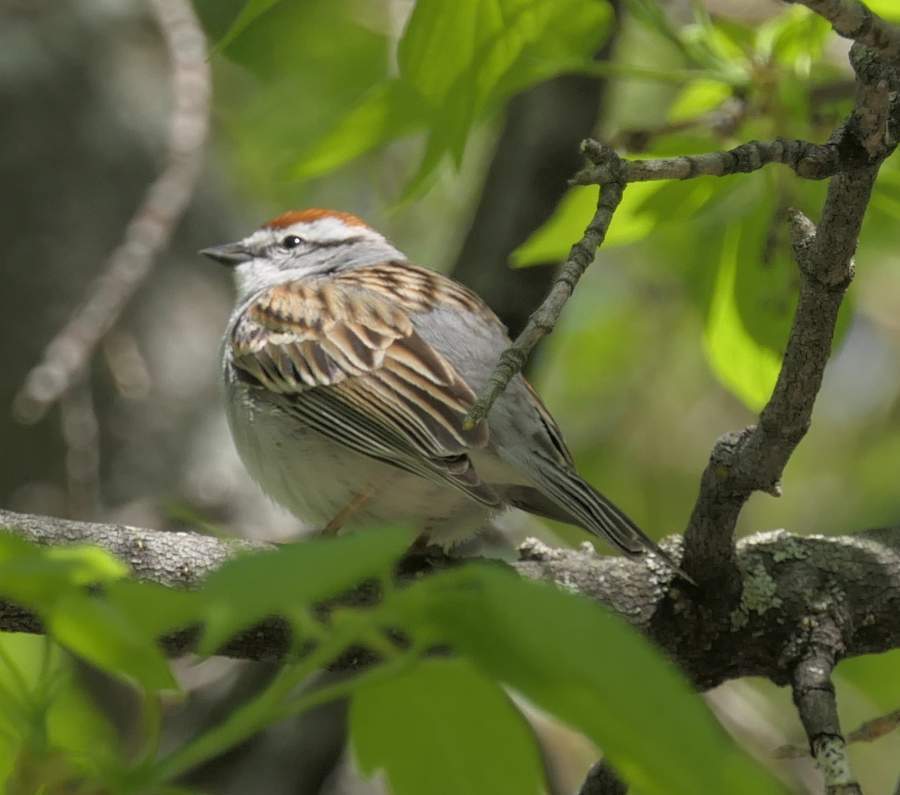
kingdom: Animalia
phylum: Chordata
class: Aves
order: Passeriformes
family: Passerellidae
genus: Spizella
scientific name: Spizella passerina
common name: Chipping sparrow
